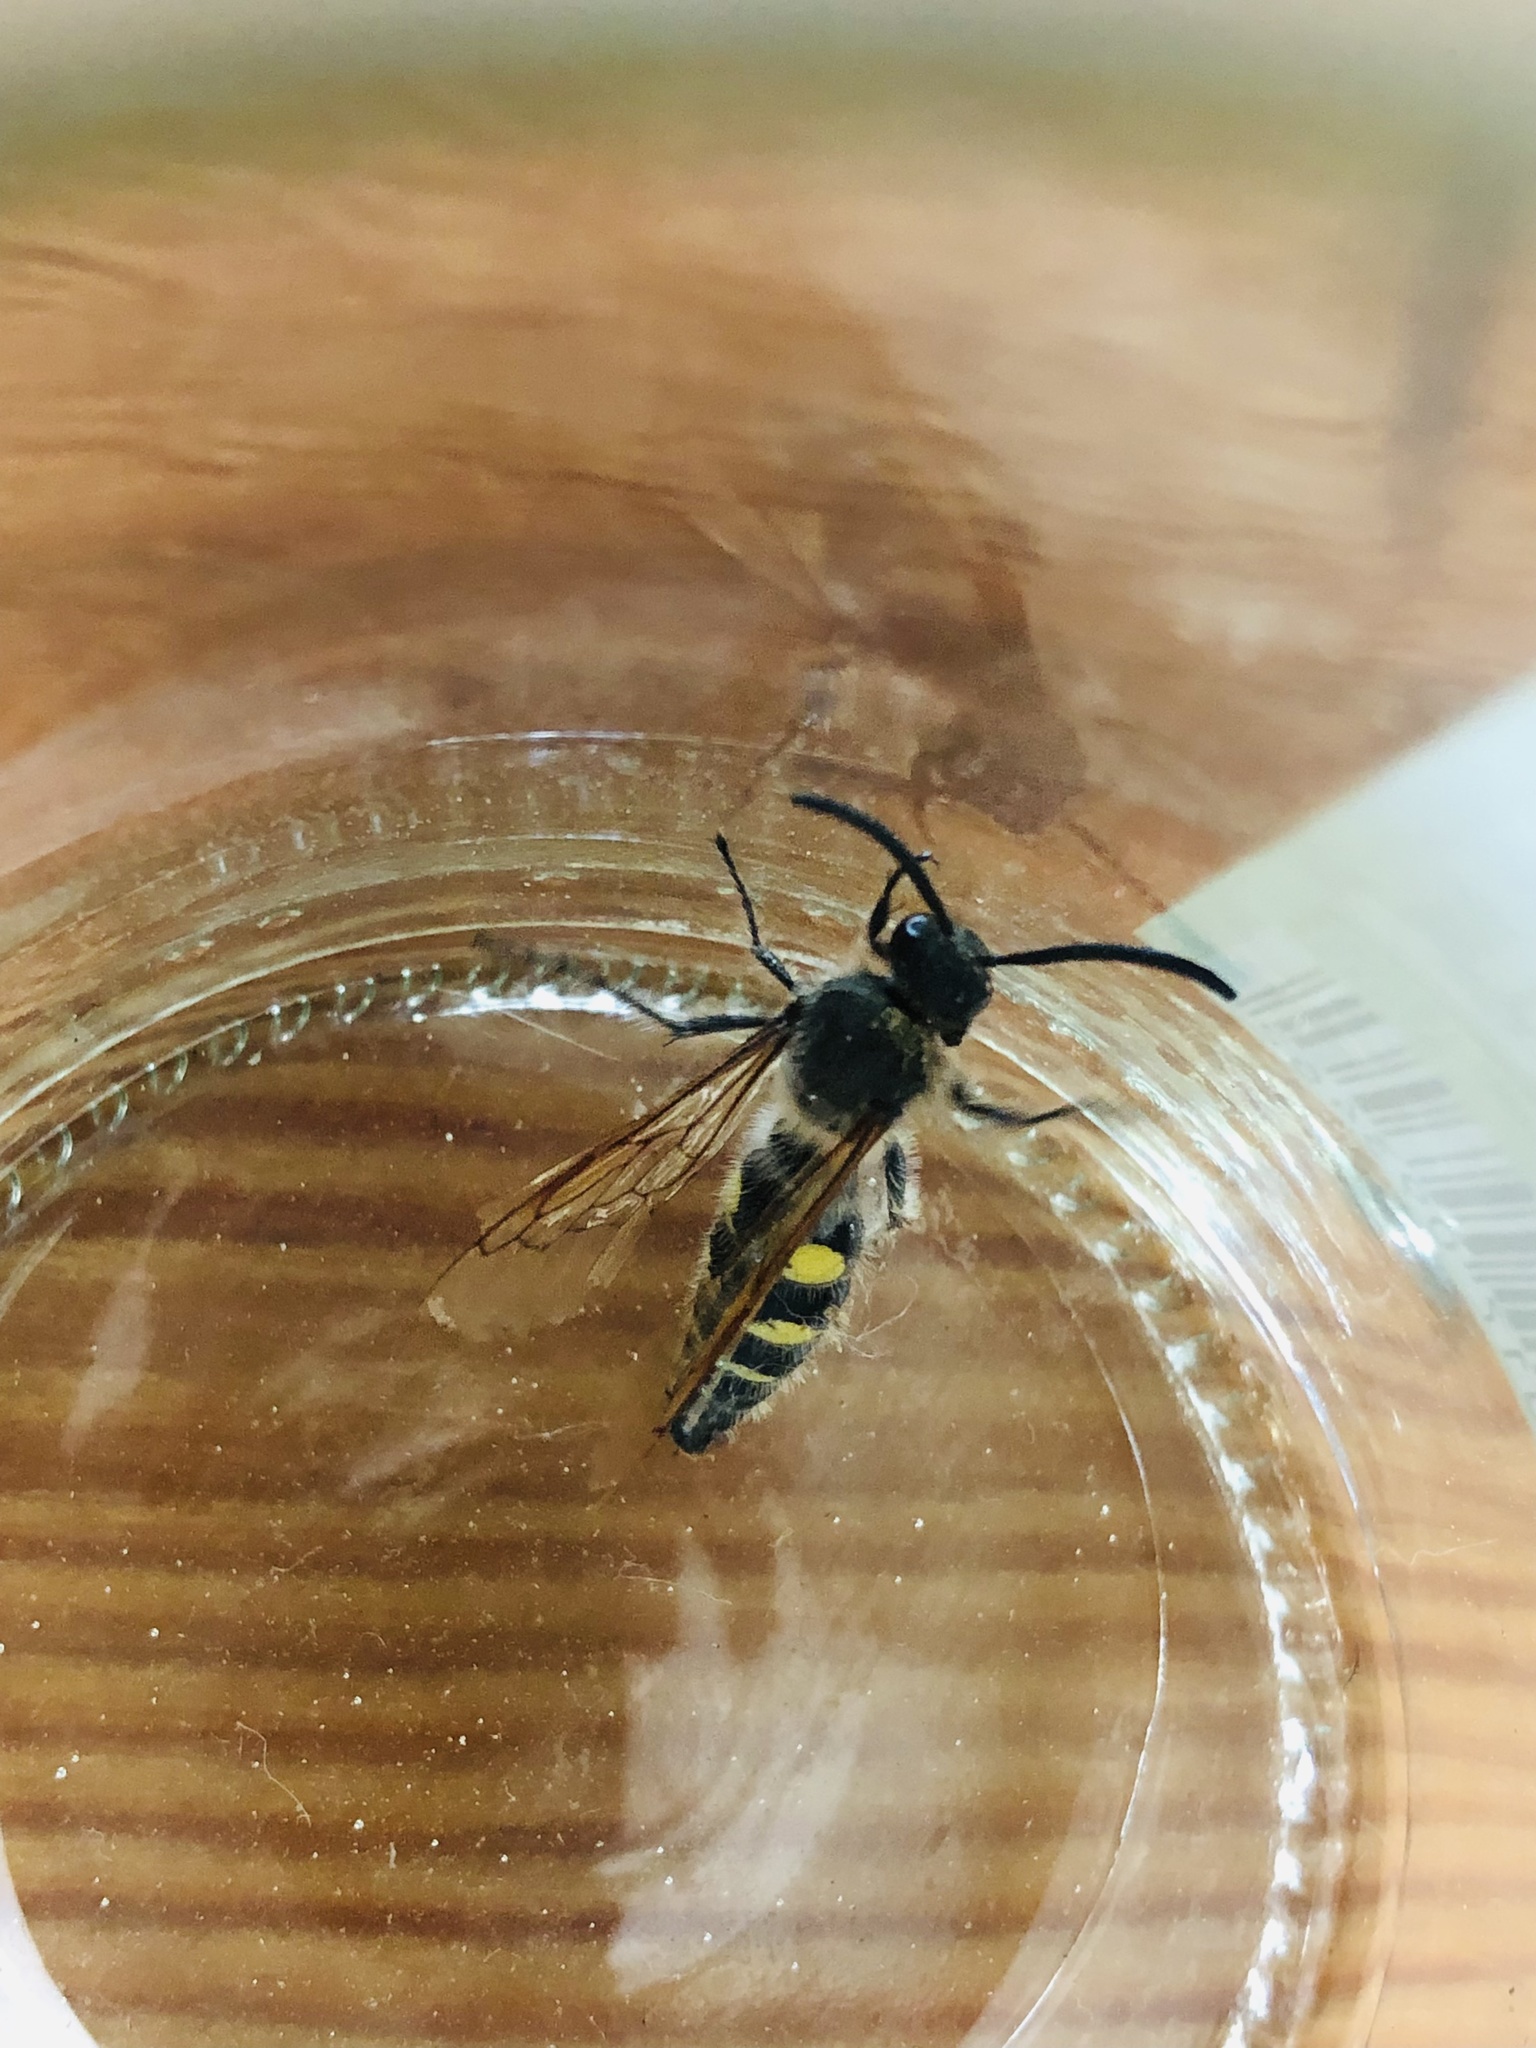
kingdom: Animalia
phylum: Arthropoda
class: Insecta
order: Hymenoptera
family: Scoliidae
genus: Pygodasis
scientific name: Pygodasis
